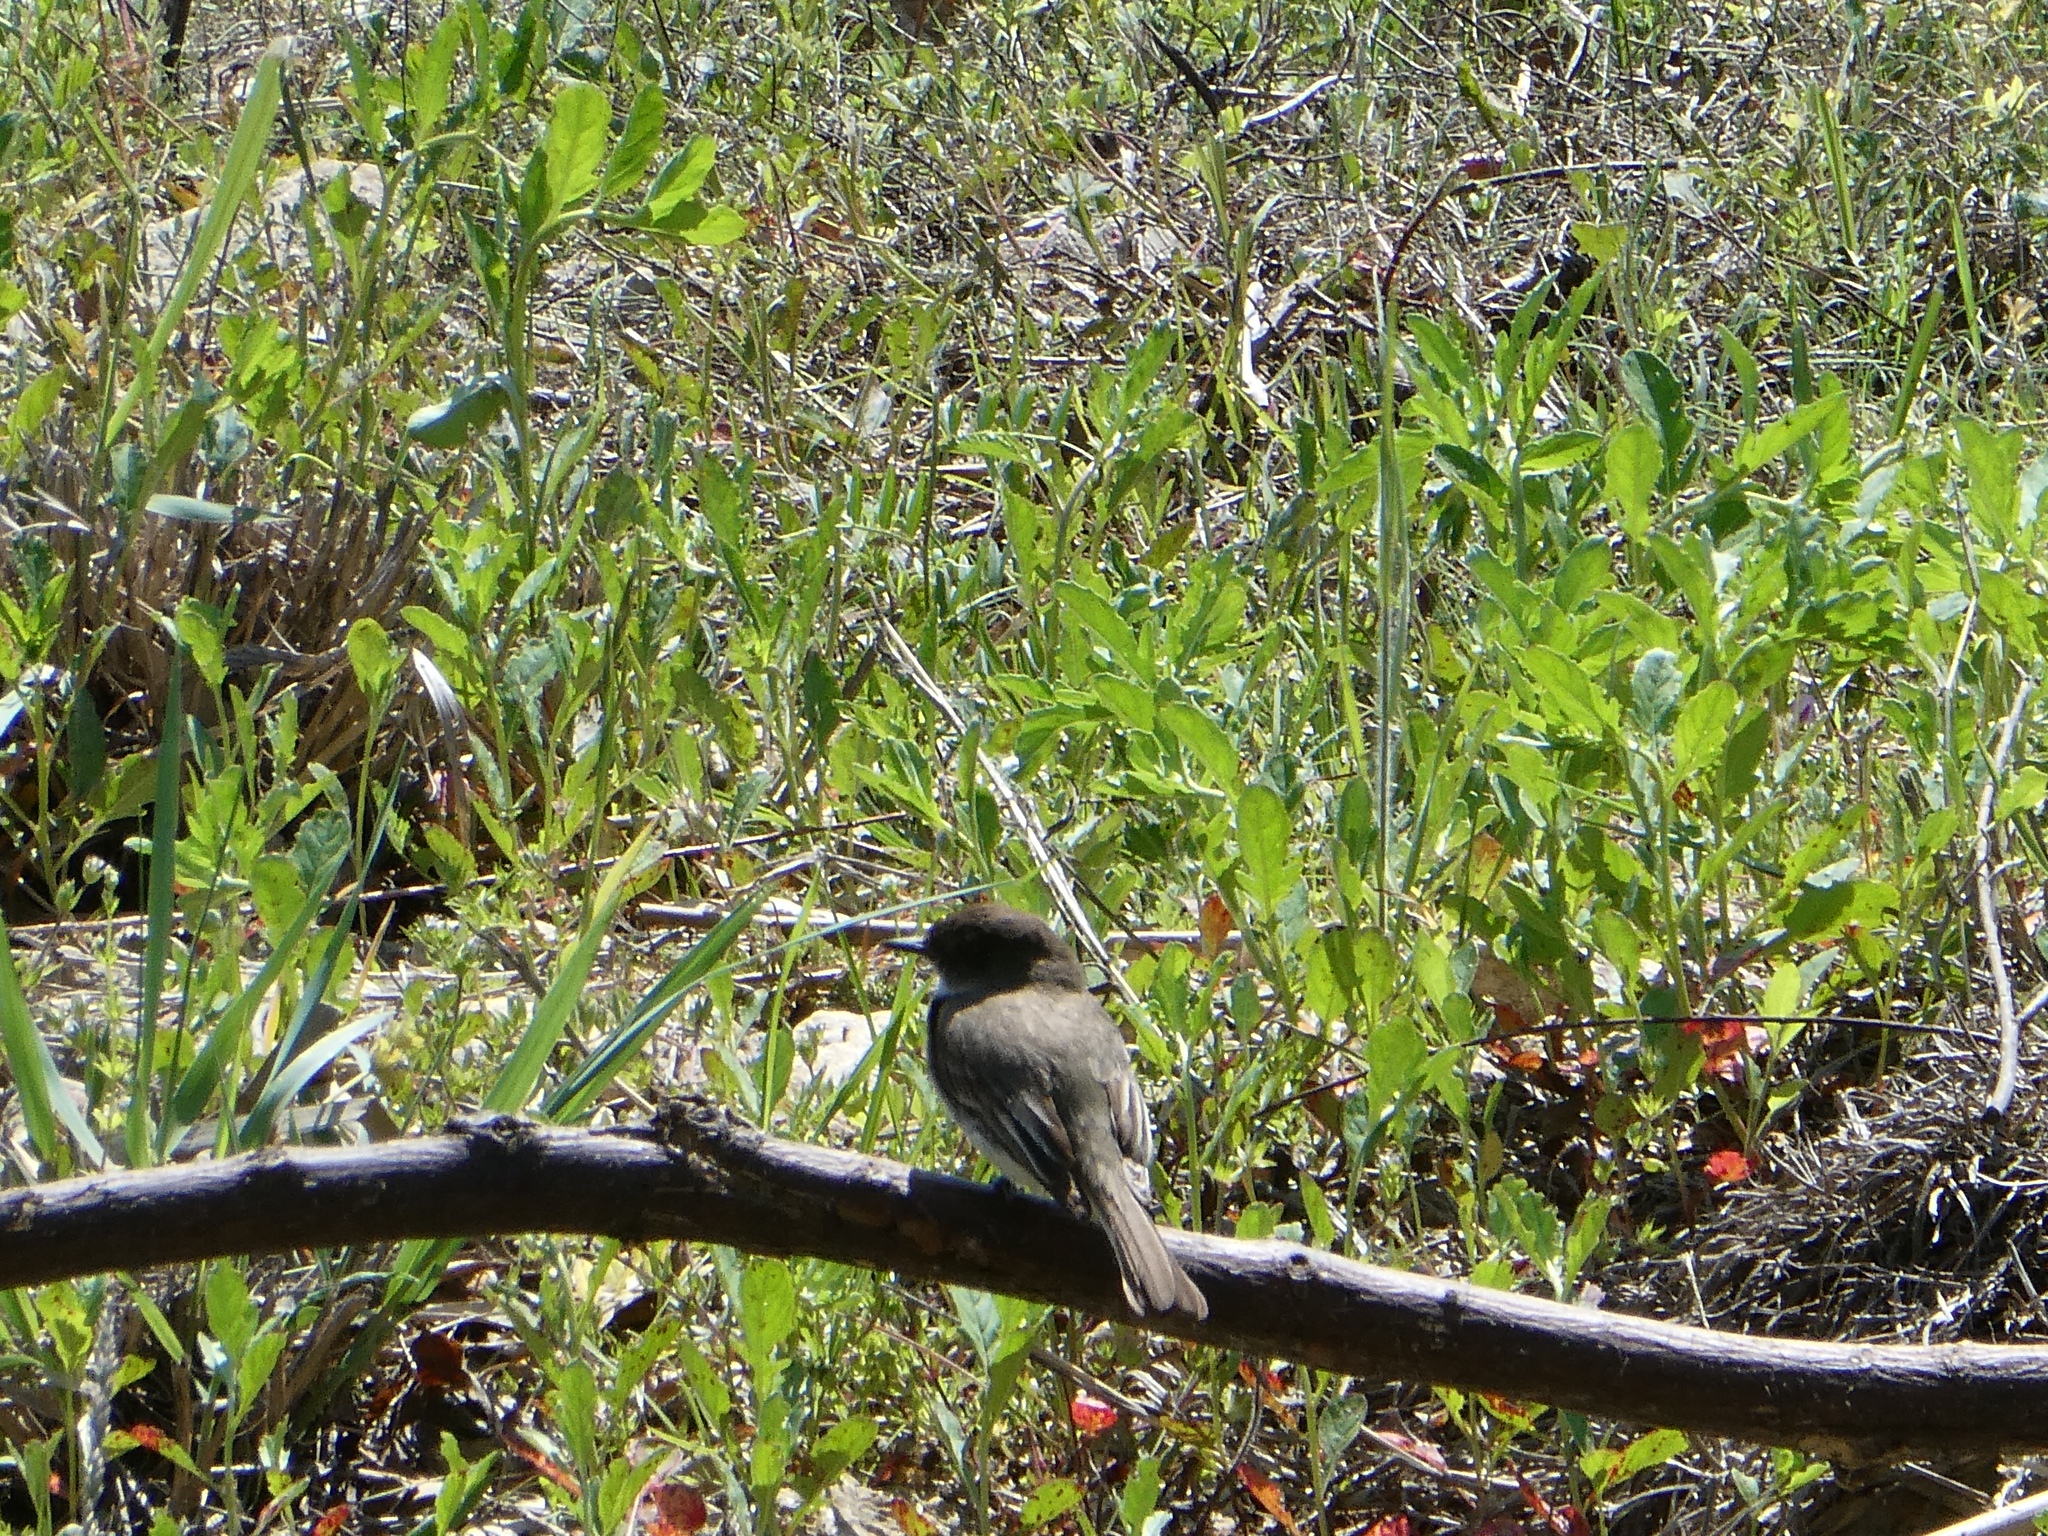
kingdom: Animalia
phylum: Chordata
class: Aves
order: Passeriformes
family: Tyrannidae
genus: Sayornis
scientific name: Sayornis phoebe
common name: Eastern phoebe
